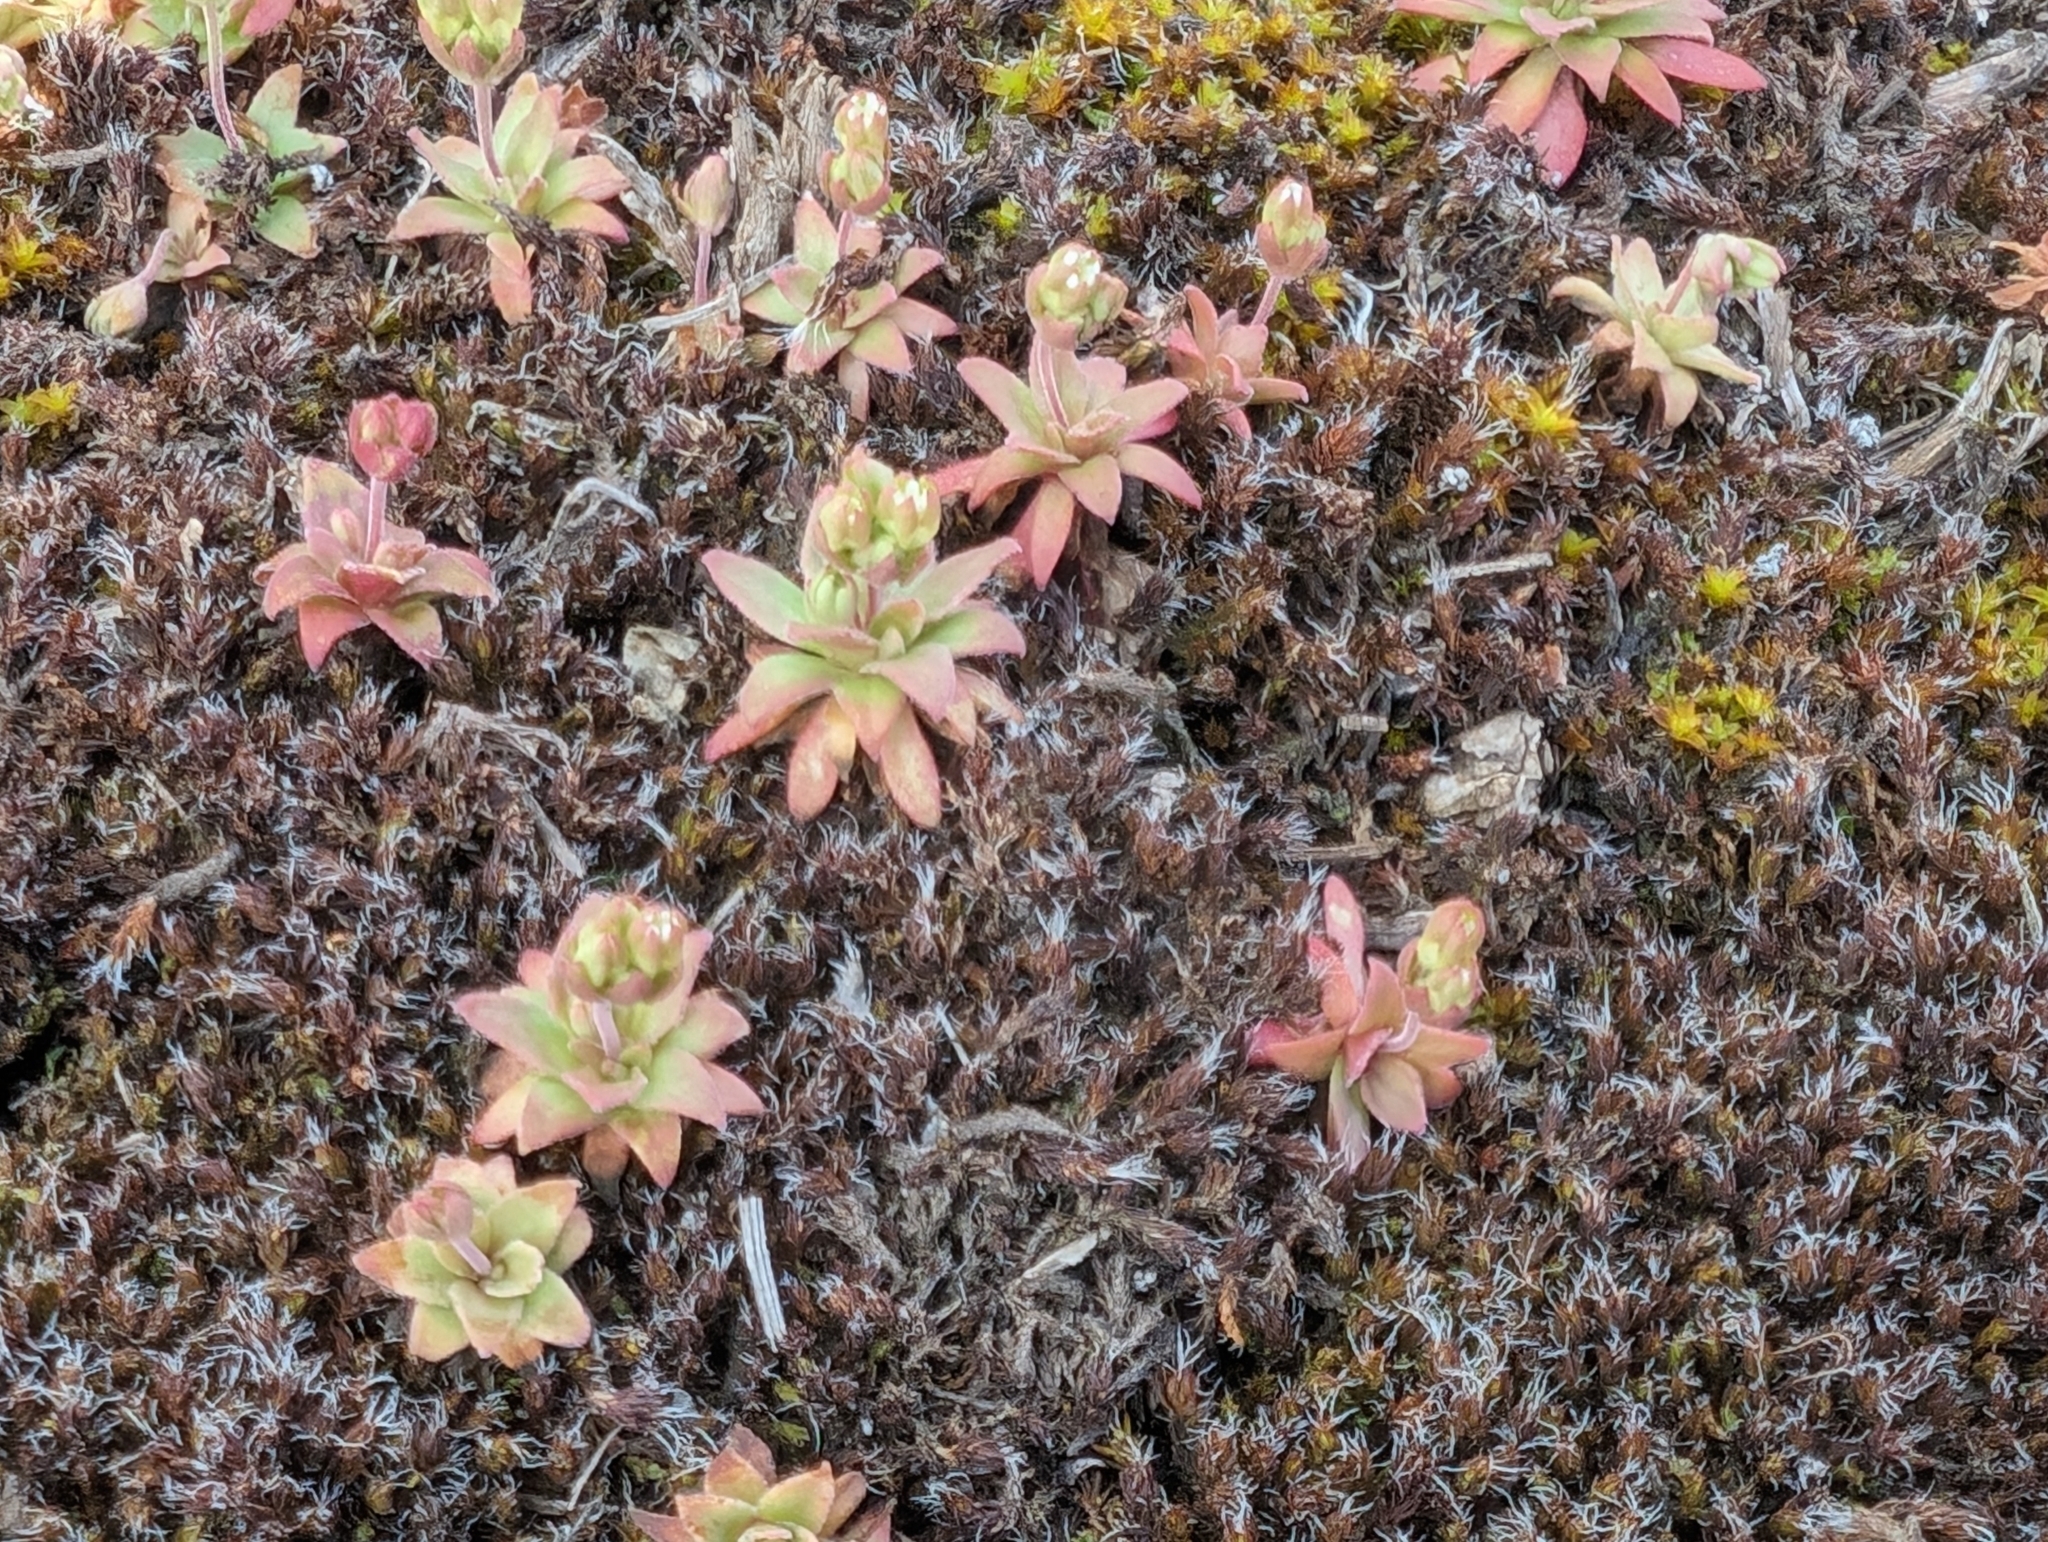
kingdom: Plantae
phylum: Tracheophyta
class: Magnoliopsida
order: Ericales
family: Primulaceae
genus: Androsace
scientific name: Androsace occidentalis
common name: West rock-jasmine
